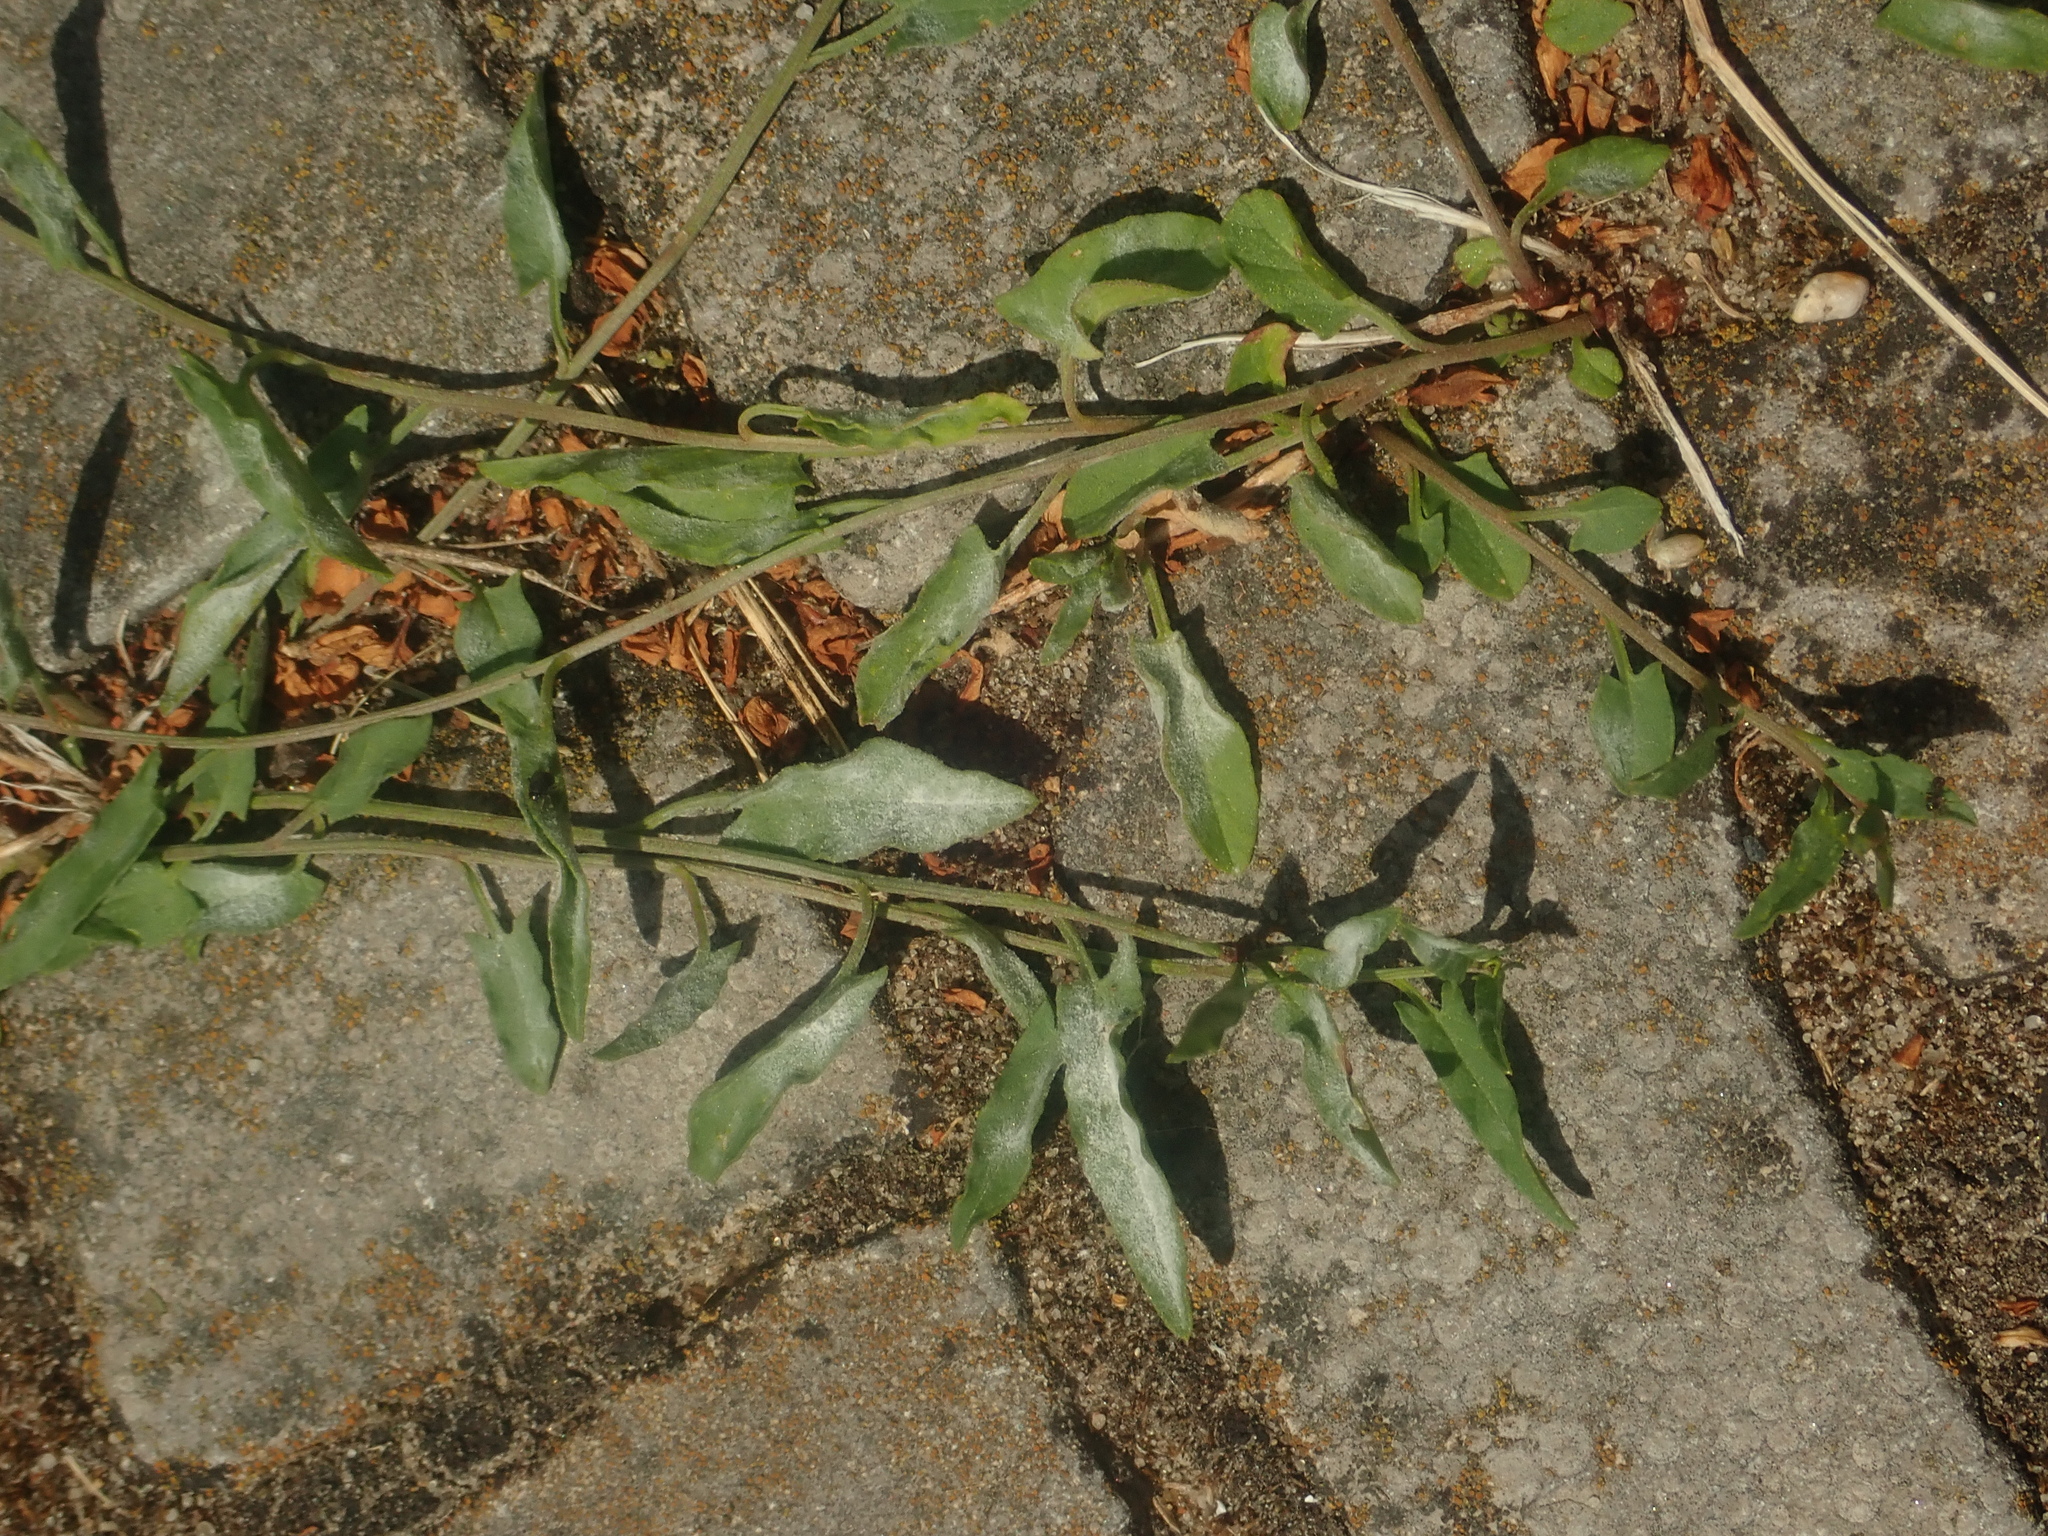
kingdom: Fungi
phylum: Ascomycota
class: Leotiomycetes
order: Helotiales
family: Erysiphaceae
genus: Erysiphe
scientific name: Erysiphe polygoni
